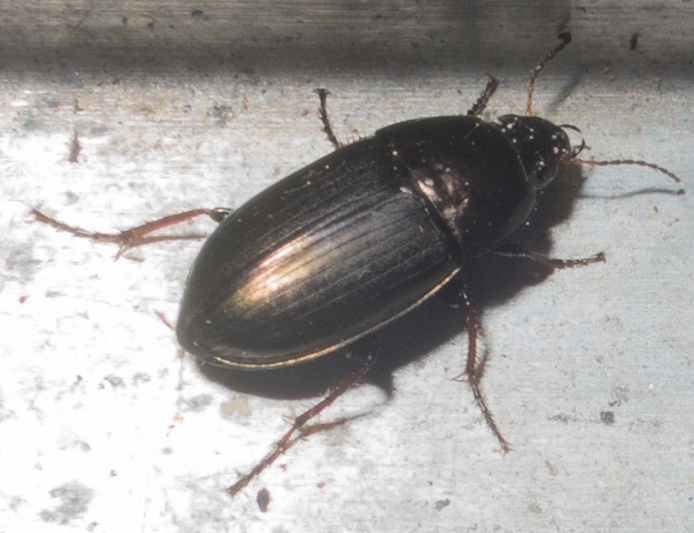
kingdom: Animalia
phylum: Arthropoda
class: Insecta
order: Coleoptera
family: Carabidae
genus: Amara
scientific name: Amara aenea
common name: Common sun beetle
